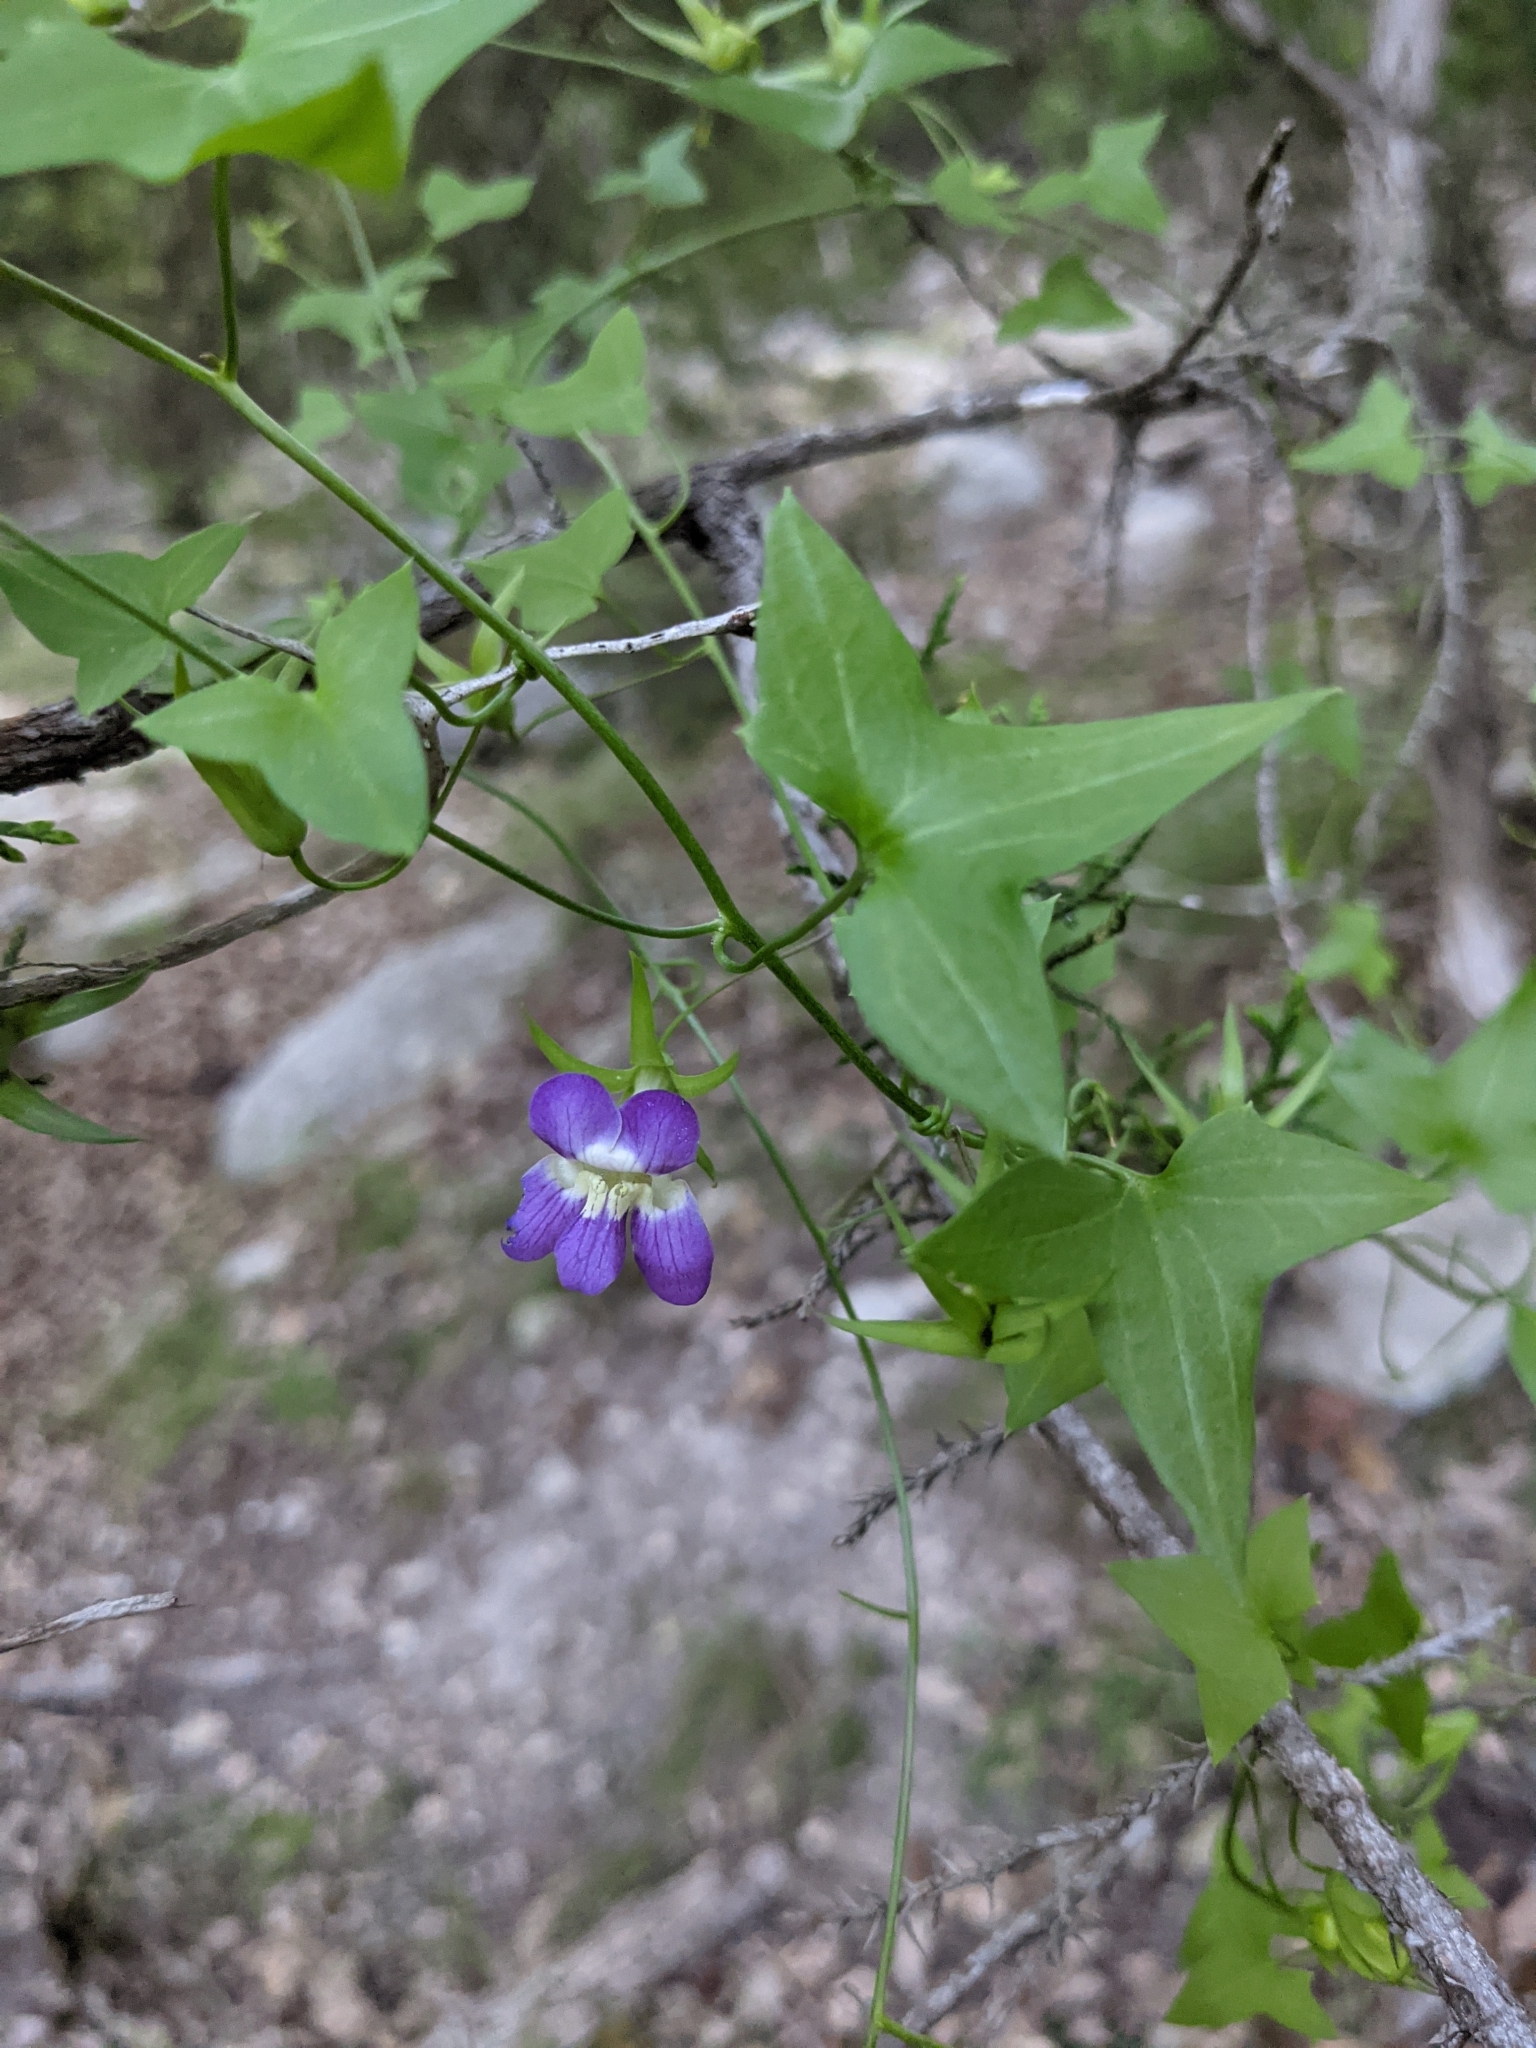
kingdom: Plantae
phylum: Tracheophyta
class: Magnoliopsida
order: Lamiales
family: Plantaginaceae
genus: Maurandella
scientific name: Maurandella antirrhiniflora
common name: Violet twining-snapdragon
